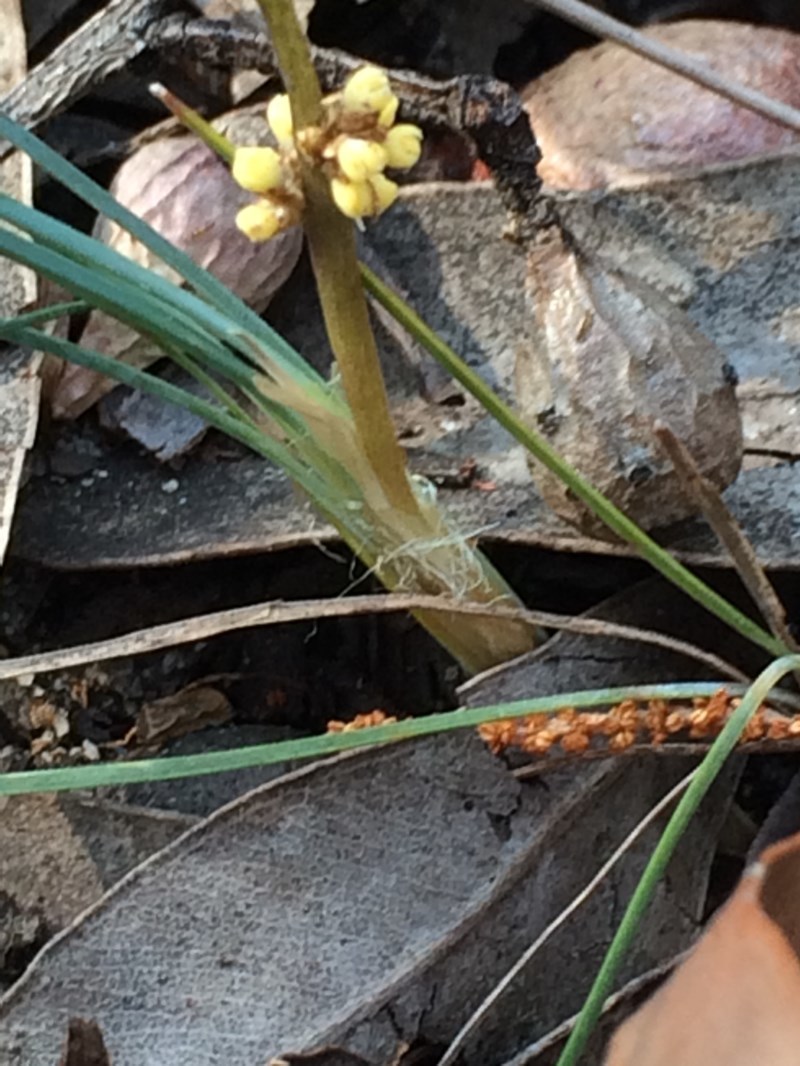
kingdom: Plantae
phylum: Tracheophyta
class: Liliopsida
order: Asparagales
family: Asparagaceae
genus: Lomandra
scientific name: Lomandra glauca
